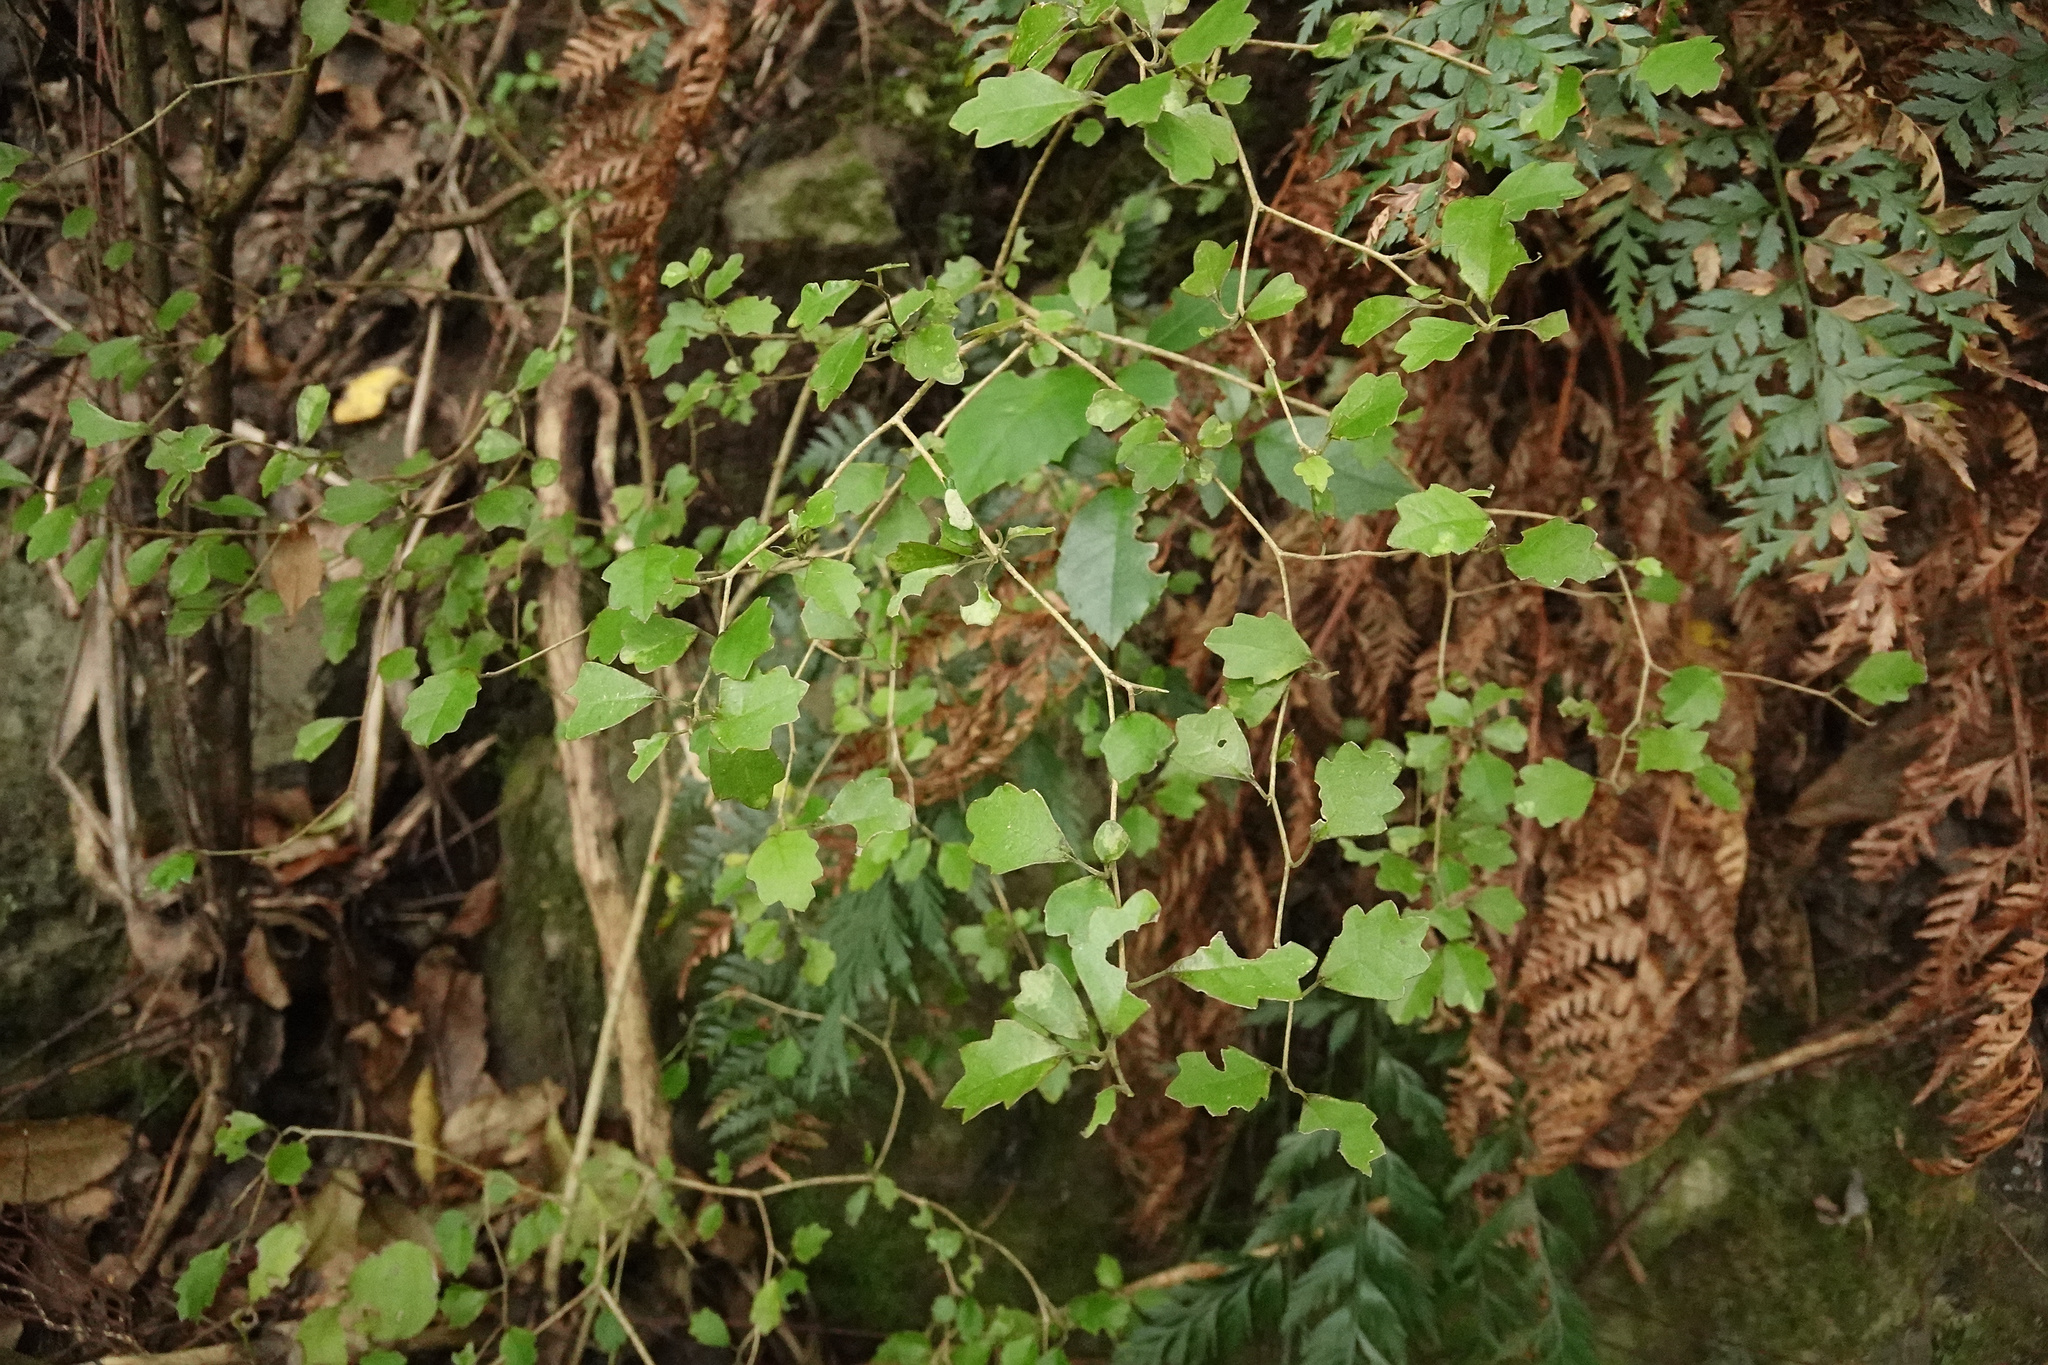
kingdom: Plantae
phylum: Tracheophyta
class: Magnoliopsida
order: Apiales
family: Pennantiaceae
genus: Pennantia
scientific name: Pennantia corymbosa
